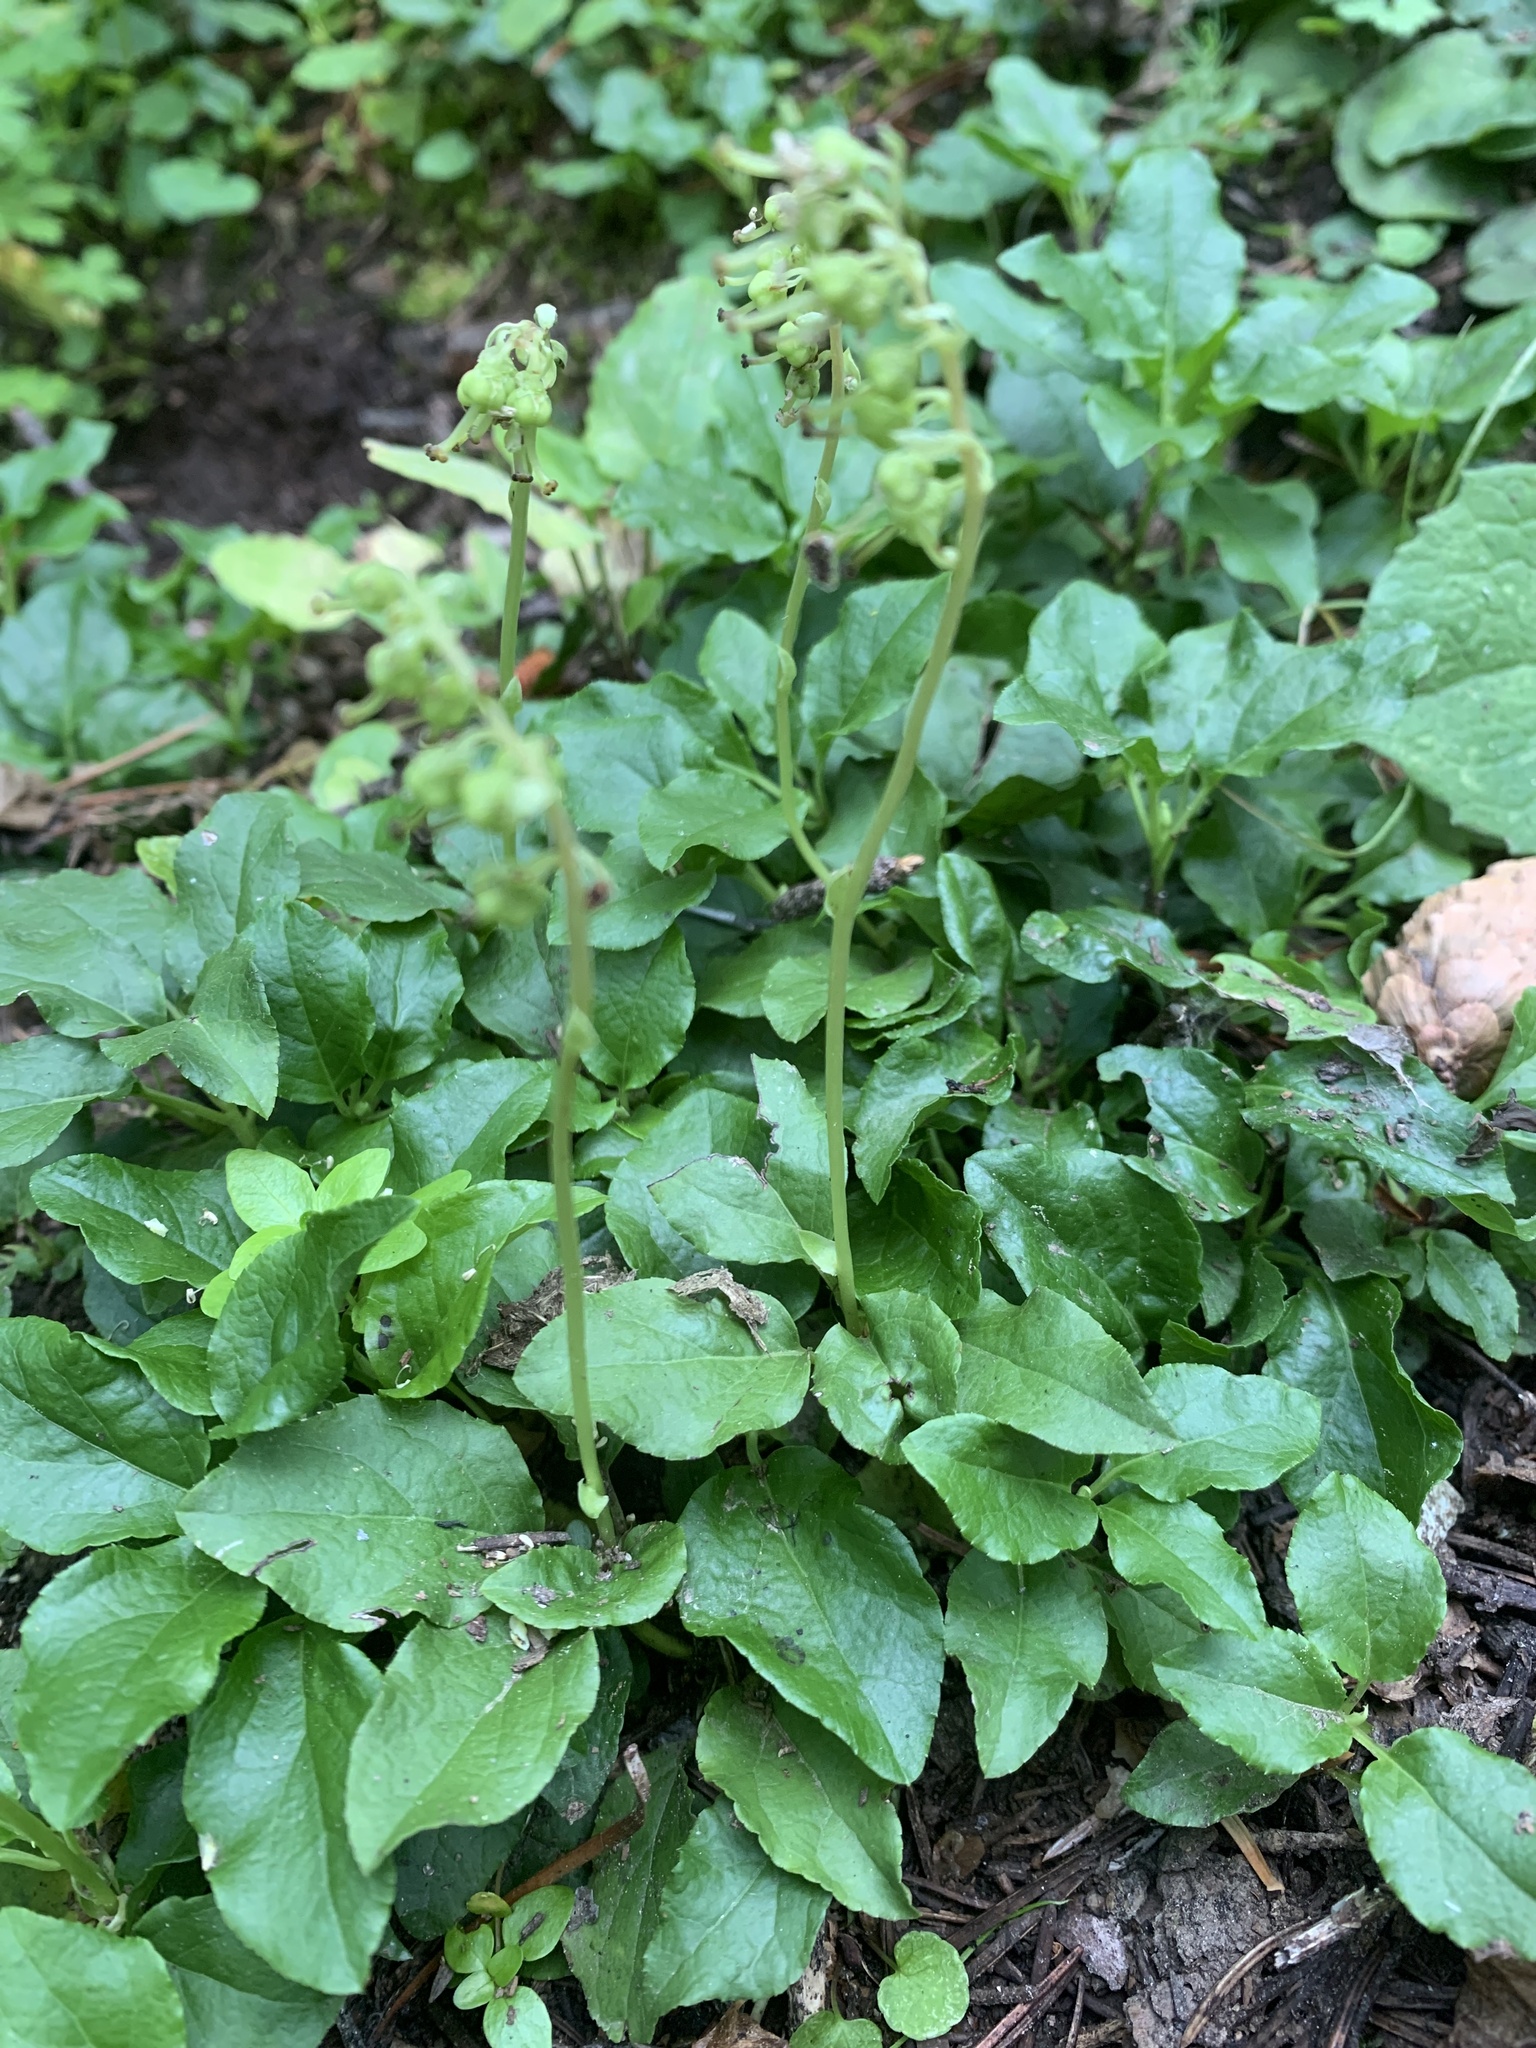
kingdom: Plantae
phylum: Tracheophyta
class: Magnoliopsida
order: Ericales
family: Ericaceae
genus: Orthilia
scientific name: Orthilia secunda
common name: One-sided orthilia
